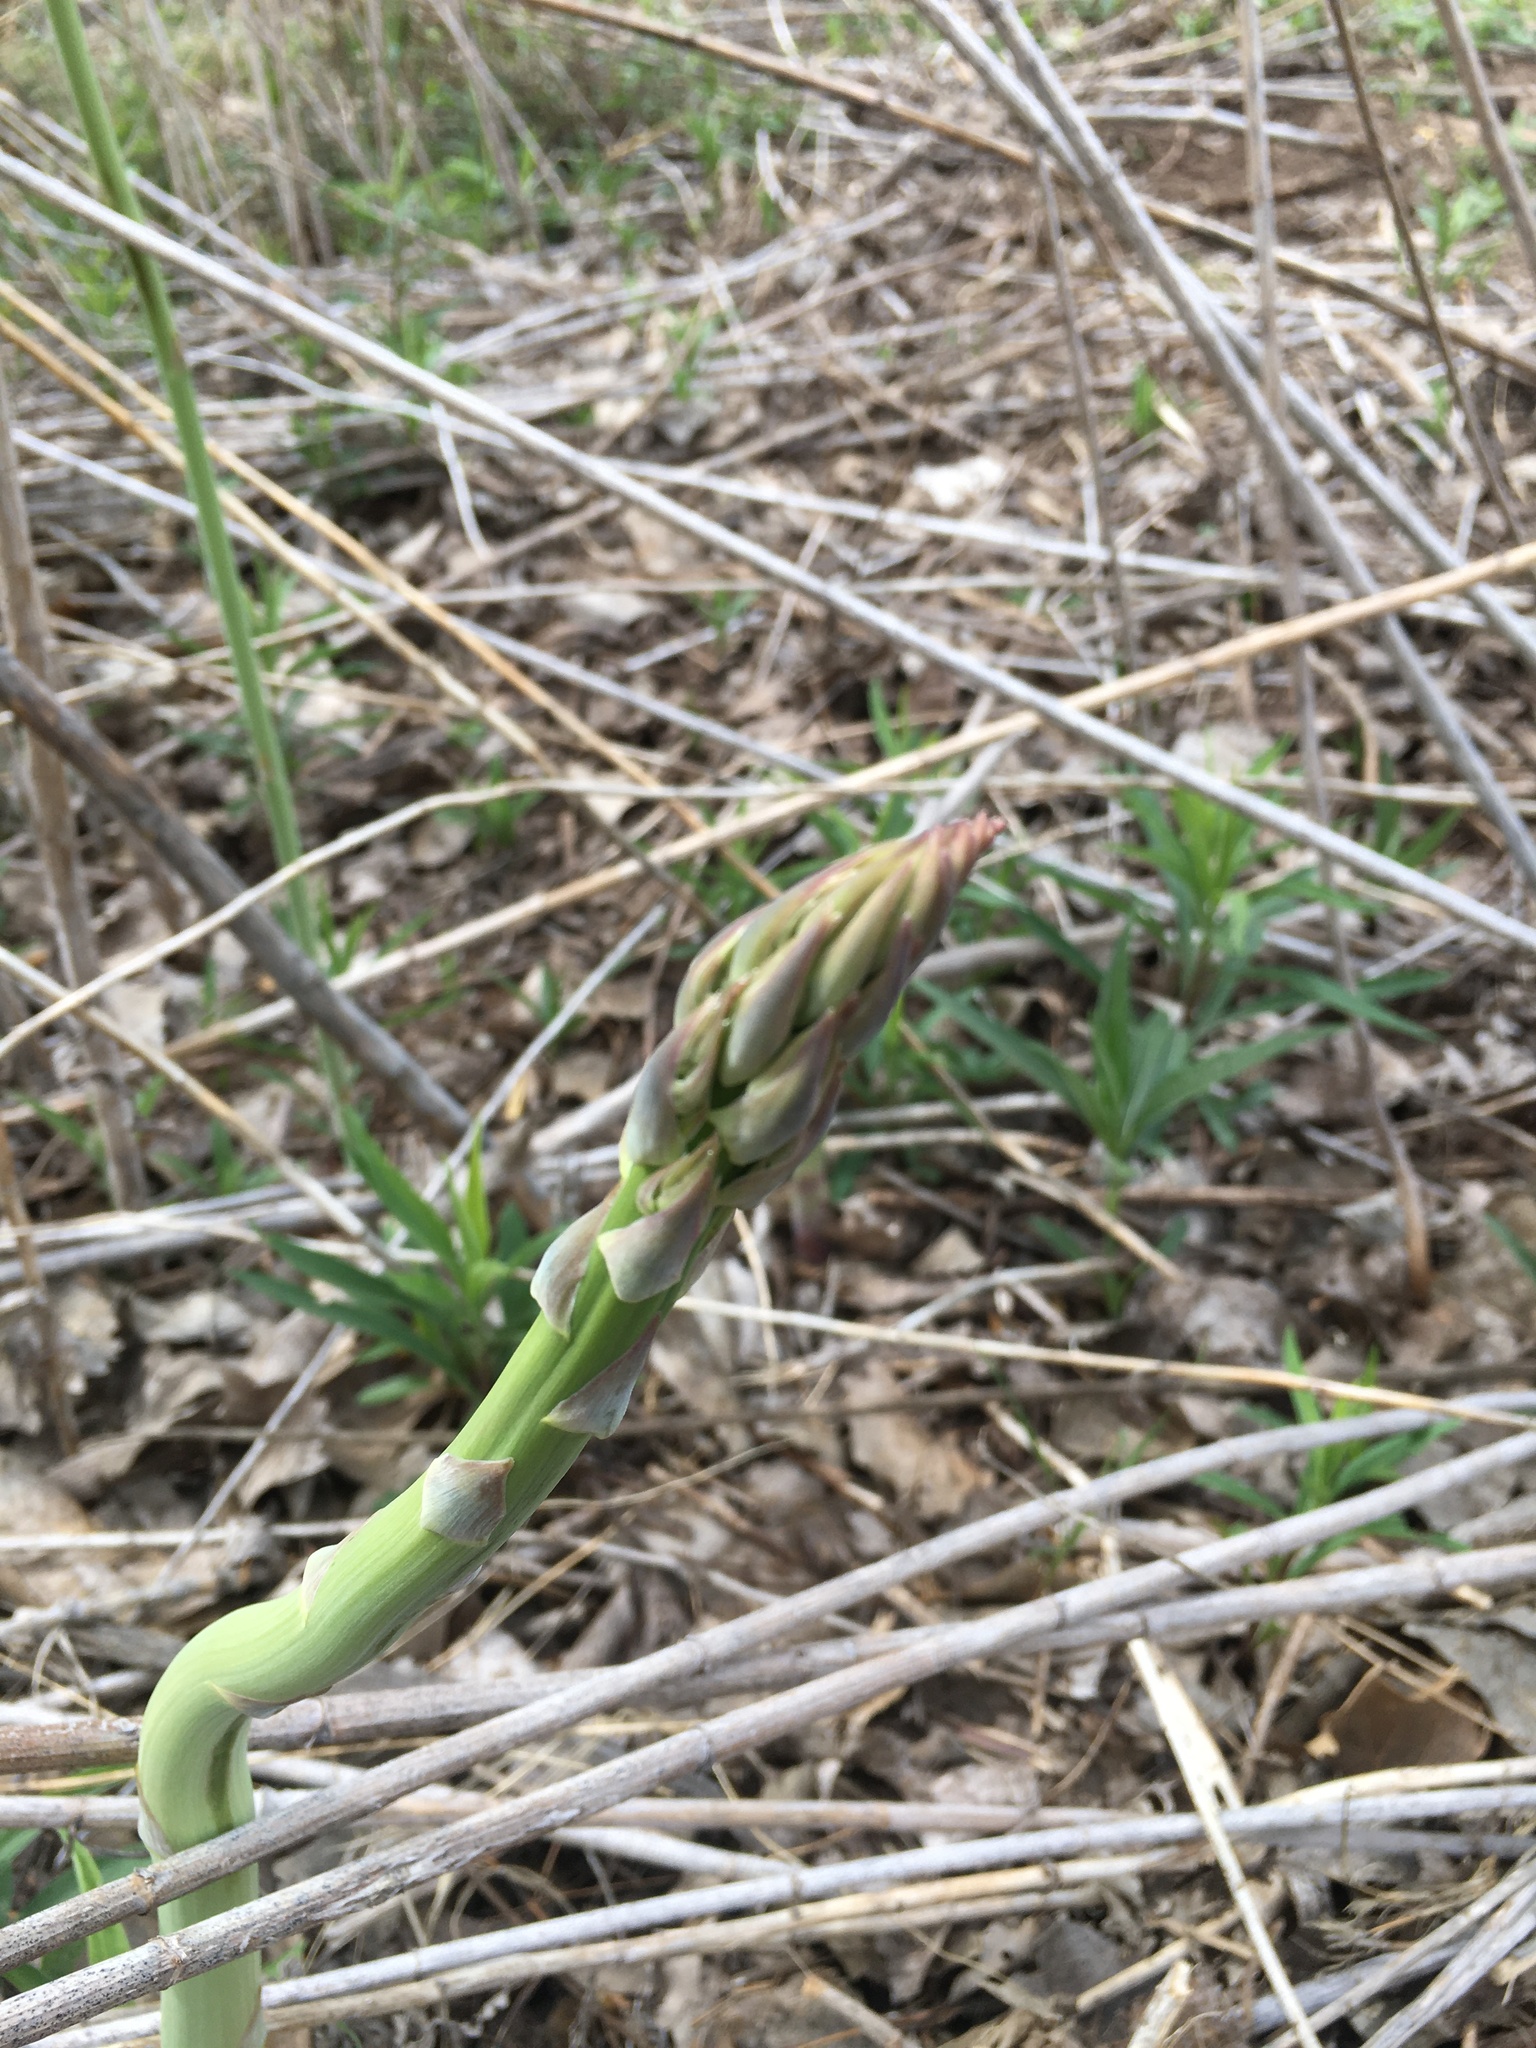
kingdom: Plantae
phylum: Tracheophyta
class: Liliopsida
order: Asparagales
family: Asparagaceae
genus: Asparagus
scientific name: Asparagus officinalis
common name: Garden asparagus
